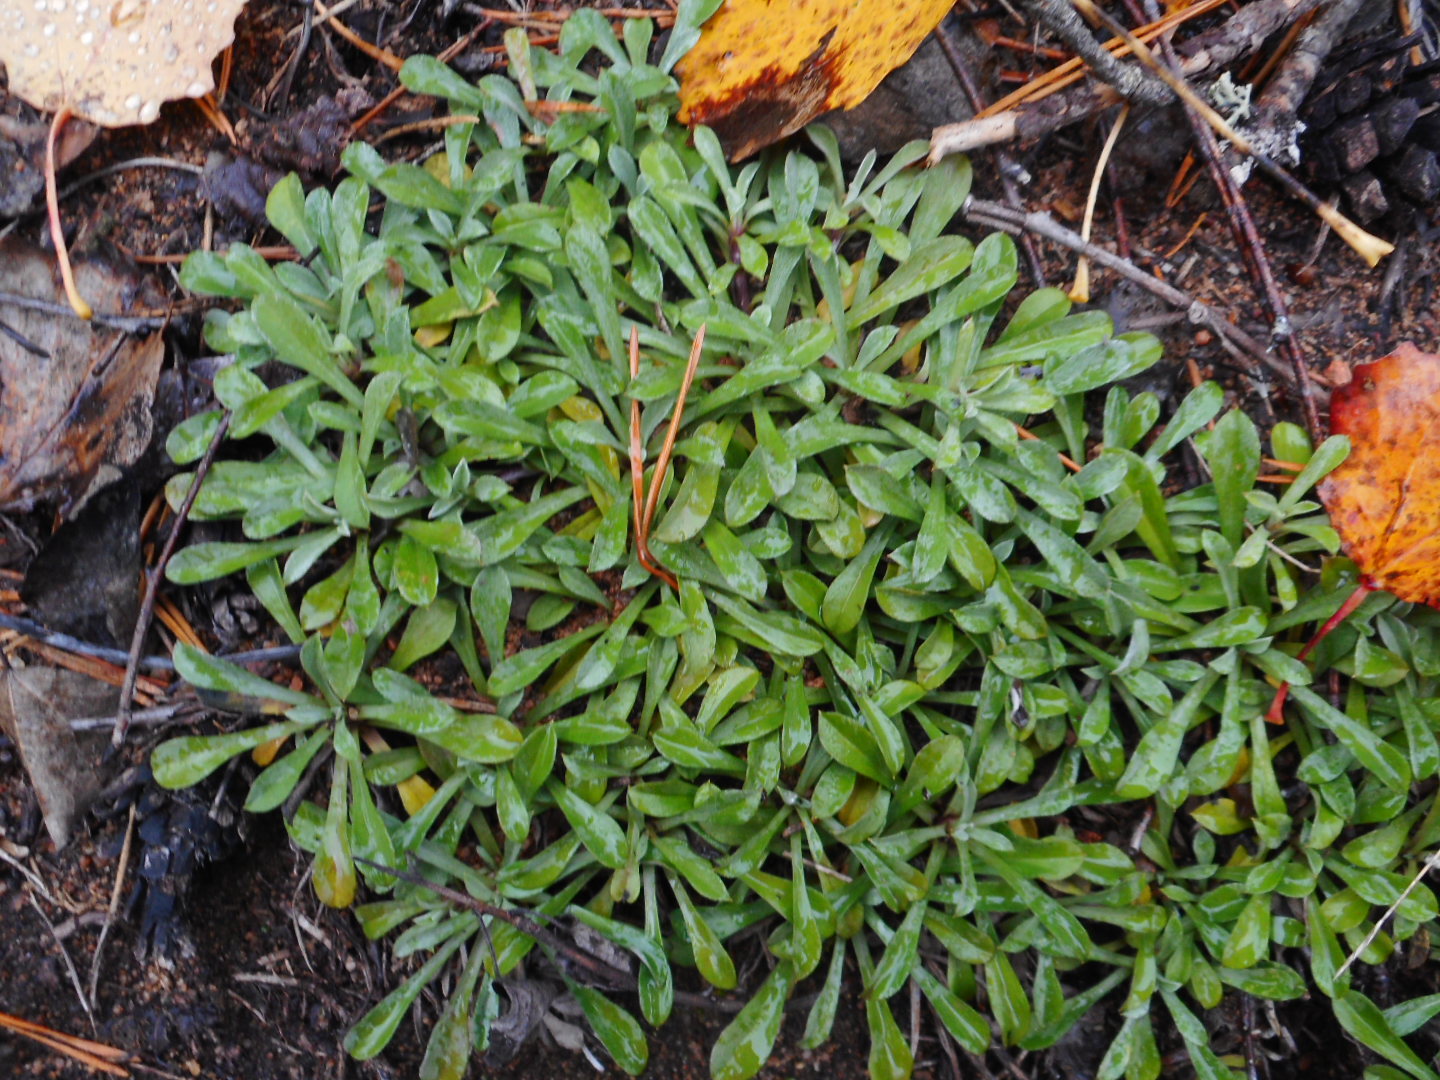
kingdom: Plantae
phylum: Tracheophyta
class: Magnoliopsida
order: Asterales
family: Asteraceae
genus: Antennaria
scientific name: Antennaria dioica
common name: Mountain everlasting
